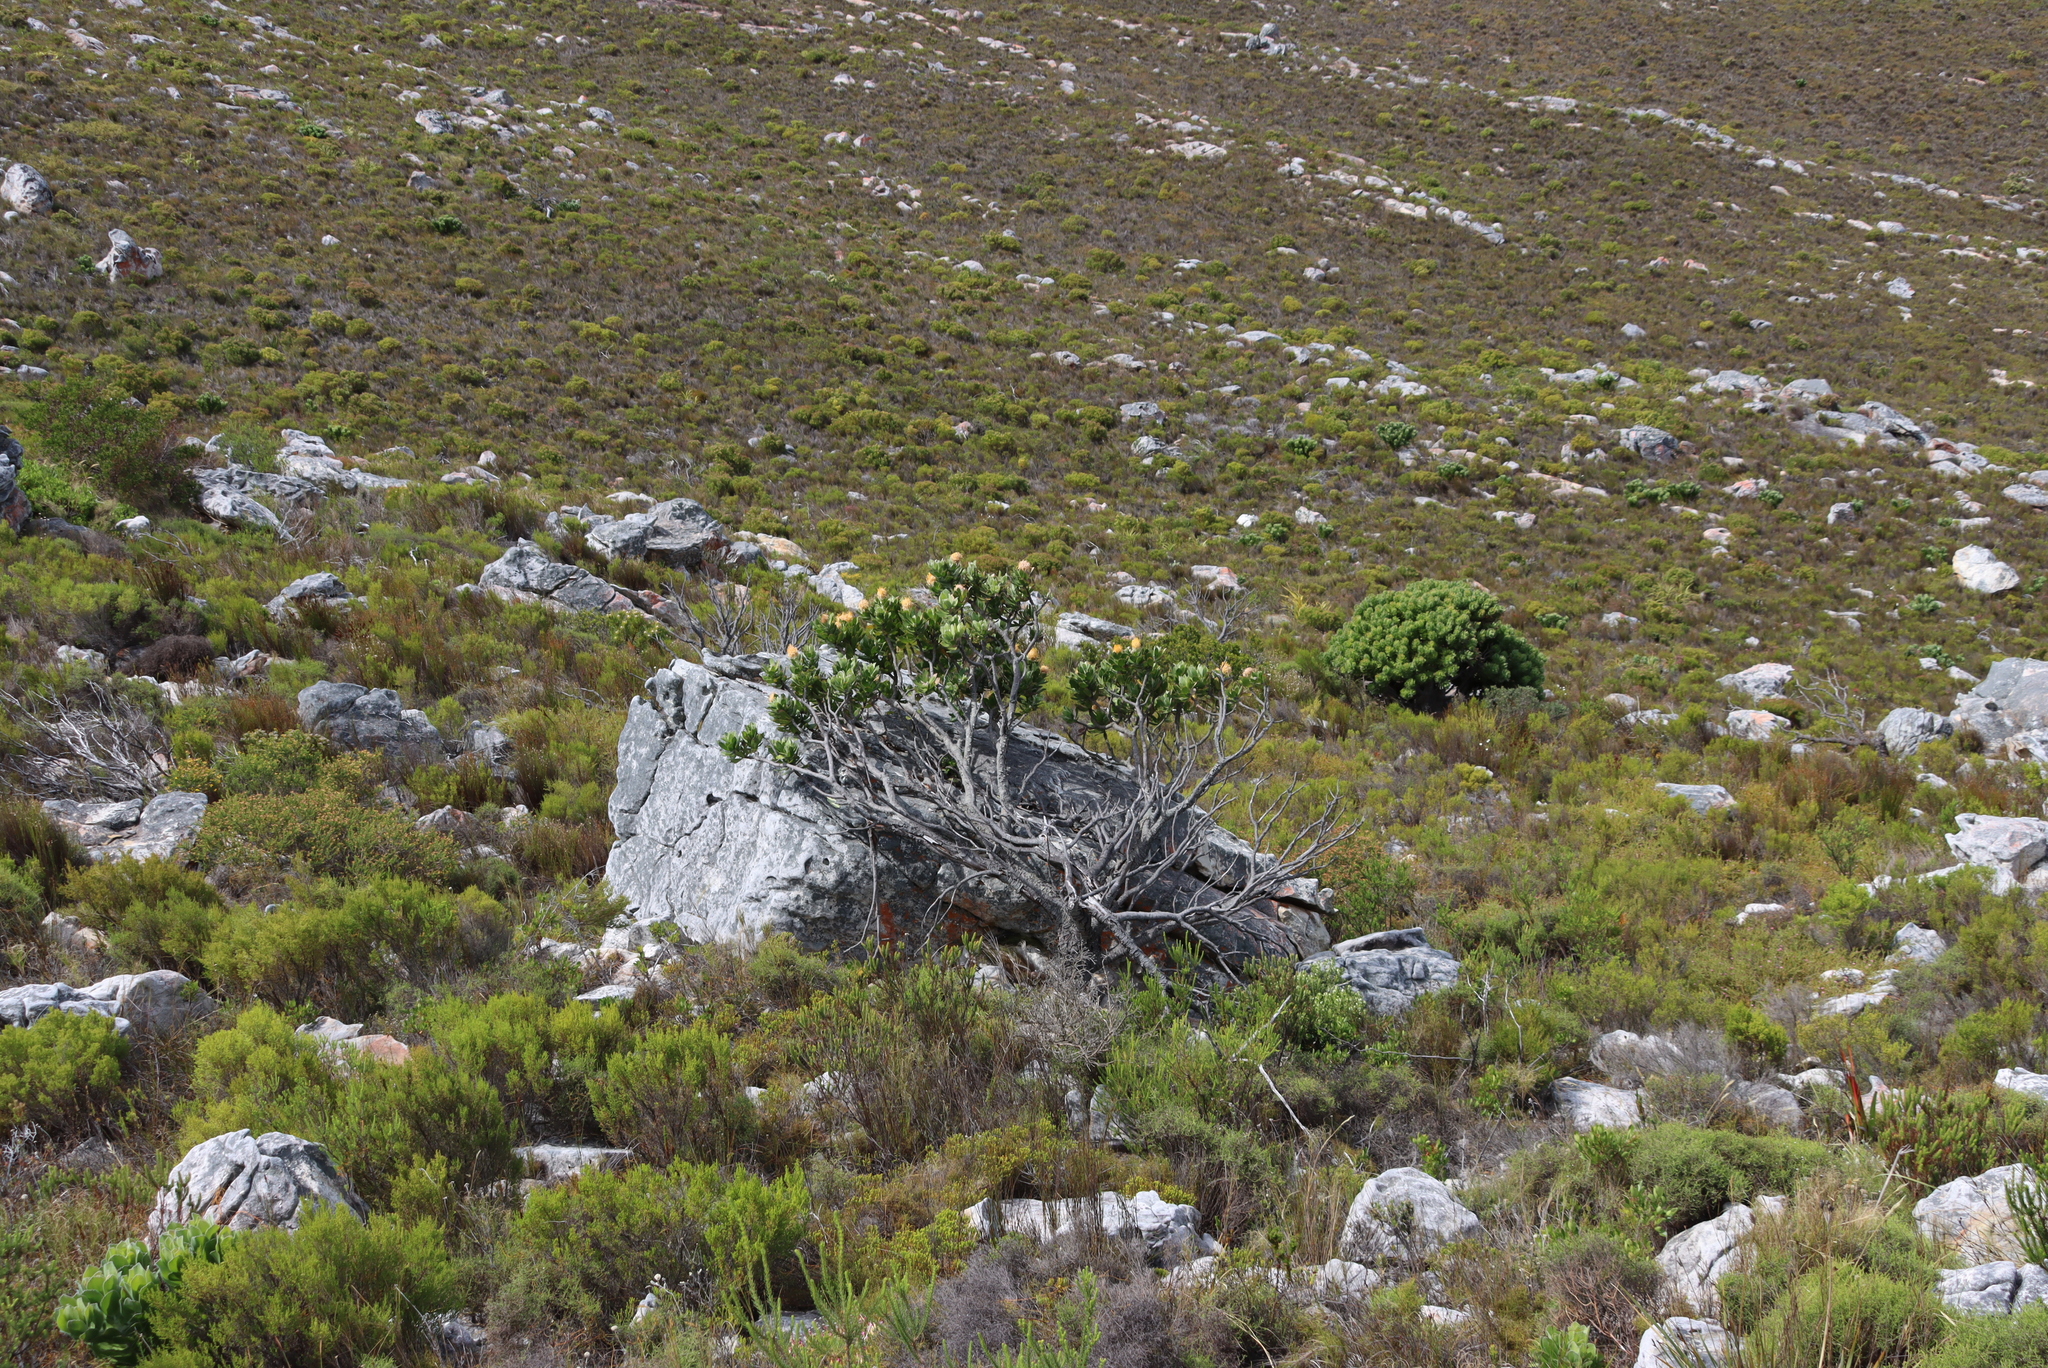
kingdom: Plantae
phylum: Tracheophyta
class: Magnoliopsida
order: Proteales
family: Proteaceae
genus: Leucospermum
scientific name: Leucospermum conocarpodendron
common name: Tree pincushion
